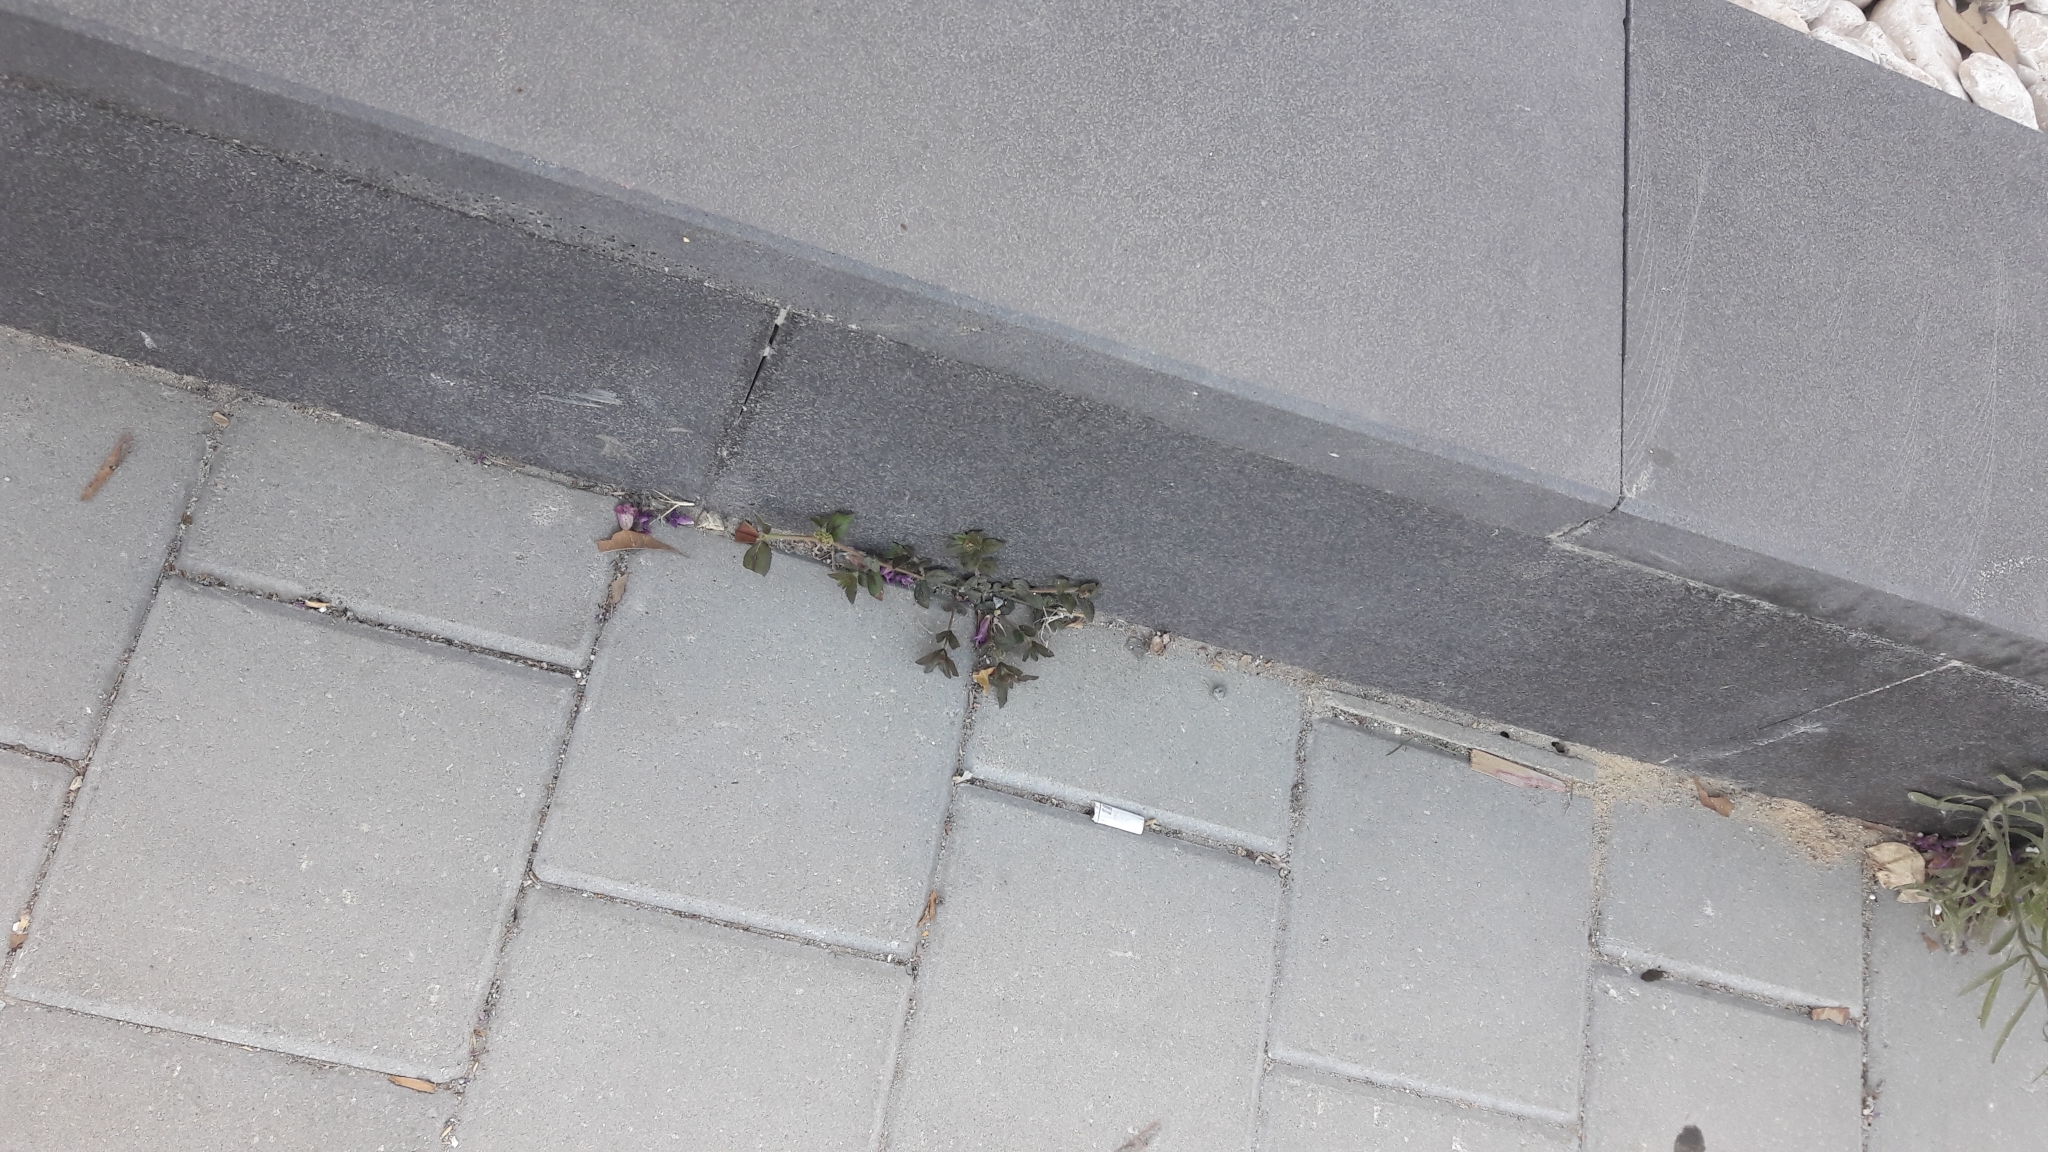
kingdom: Plantae
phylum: Tracheophyta
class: Magnoliopsida
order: Malpighiales
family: Euphorbiaceae
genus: Euphorbia
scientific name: Euphorbia hirta
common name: Pillpod sandmat
